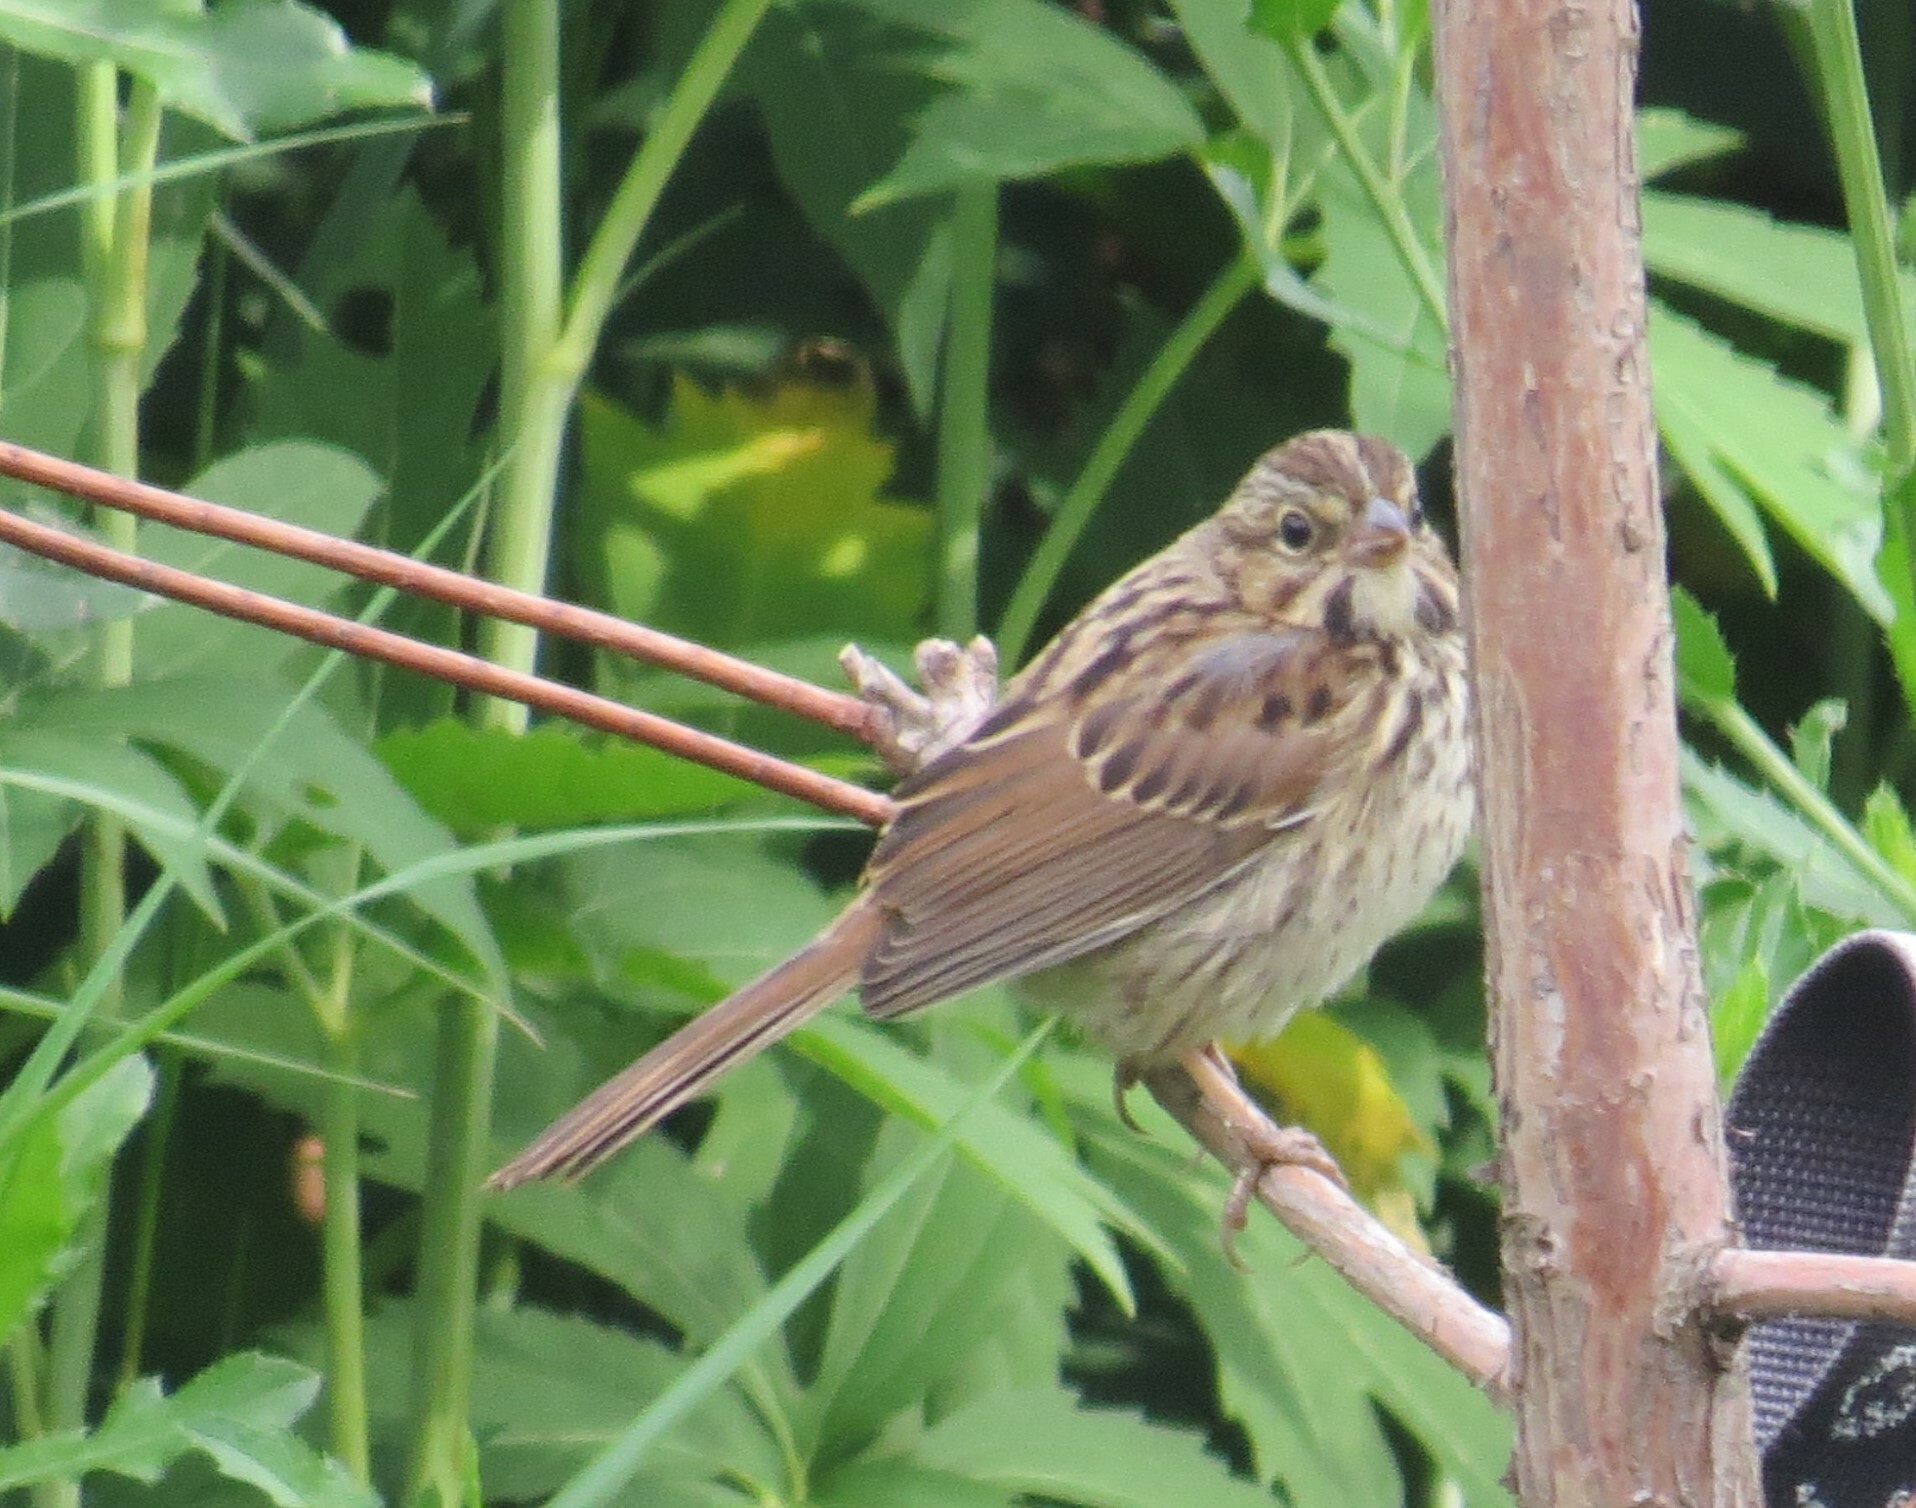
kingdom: Animalia
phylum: Chordata
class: Aves
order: Passeriformes
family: Passerellidae
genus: Melospiza
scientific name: Melospiza melodia
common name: Song sparrow
